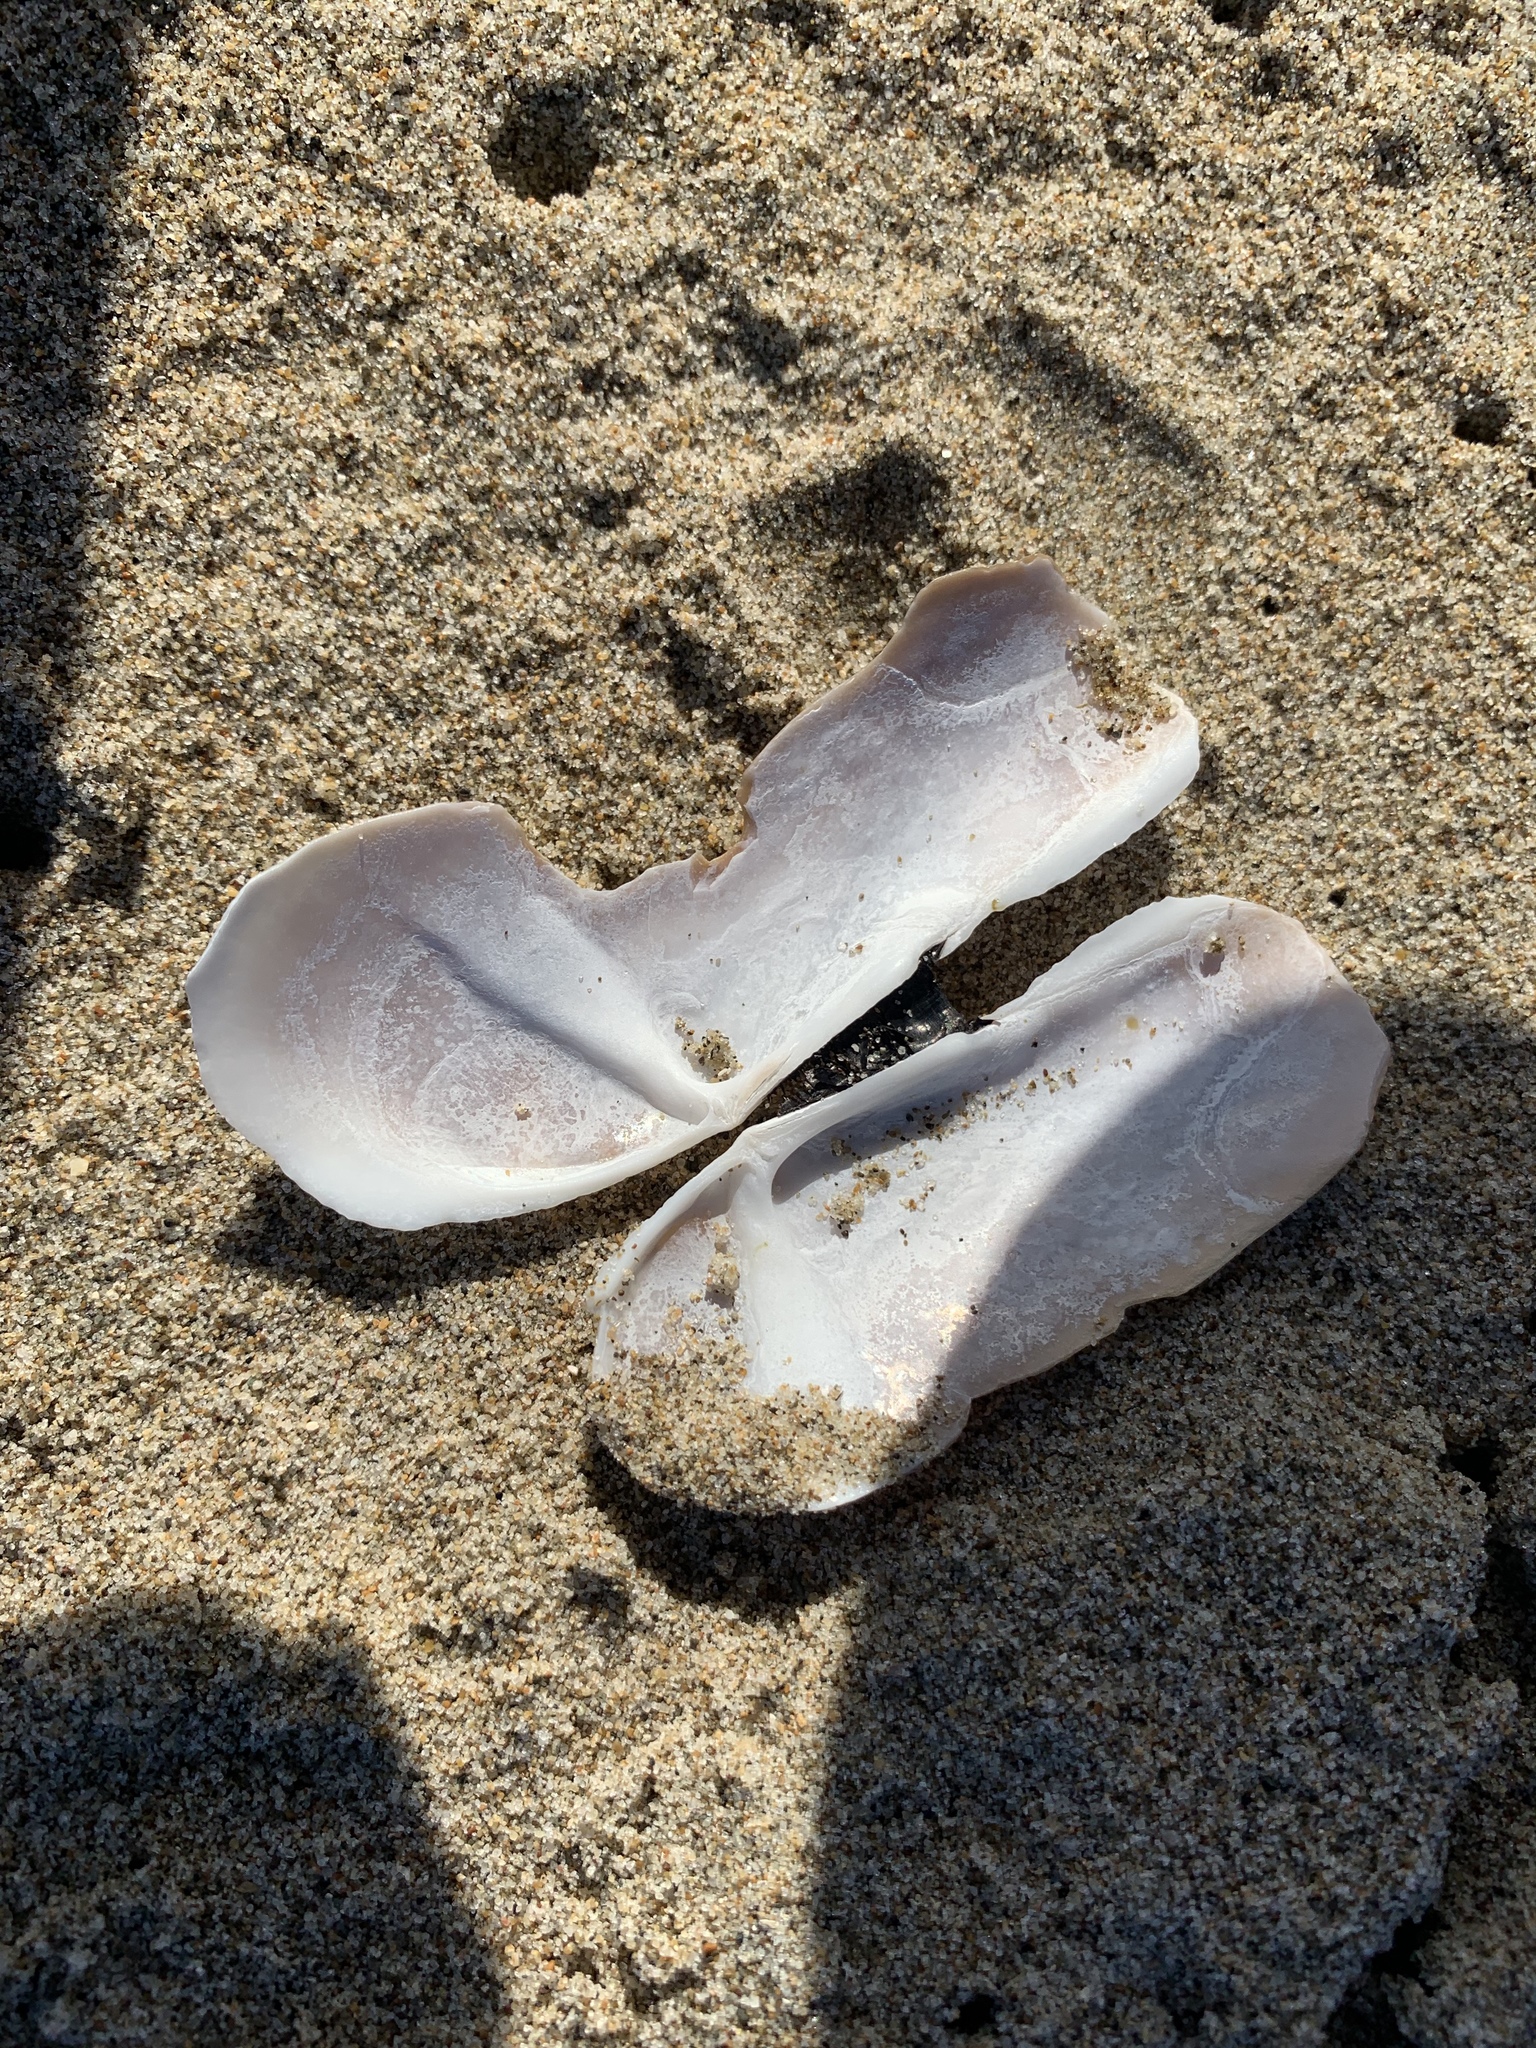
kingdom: Animalia
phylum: Mollusca
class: Bivalvia
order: Adapedonta
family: Pharidae
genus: Siliqua
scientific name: Siliqua patula
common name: Pacific razor clam
